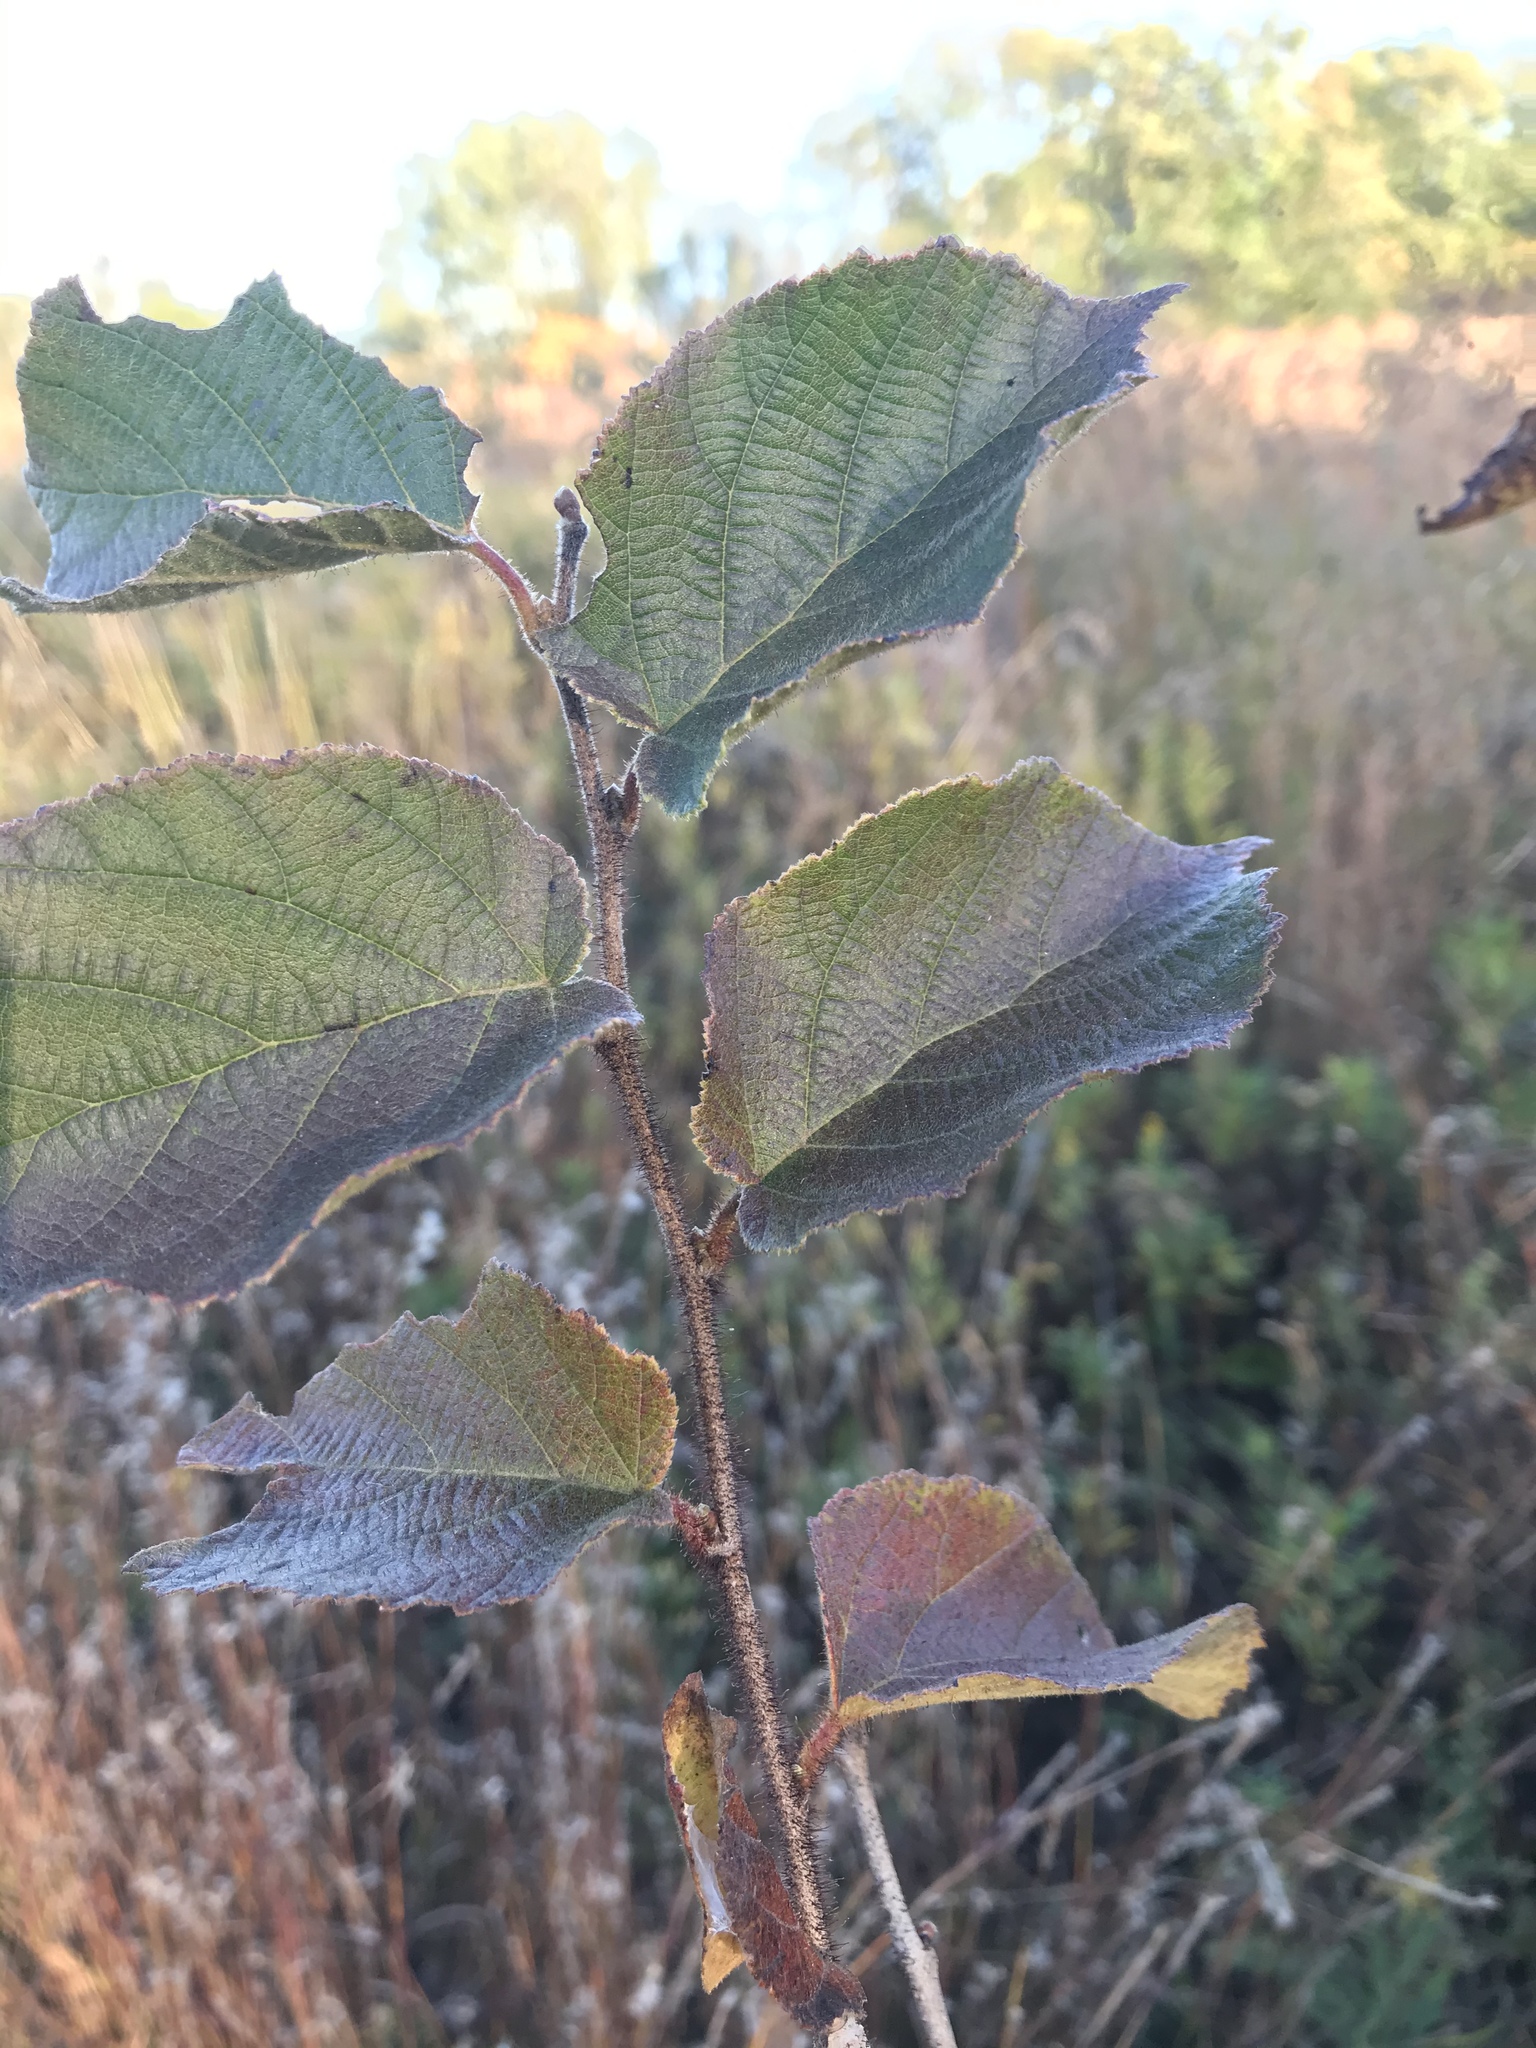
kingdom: Plantae
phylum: Tracheophyta
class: Magnoliopsida
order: Fagales
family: Betulaceae
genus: Corylus
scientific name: Corylus americana
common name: American hazel
